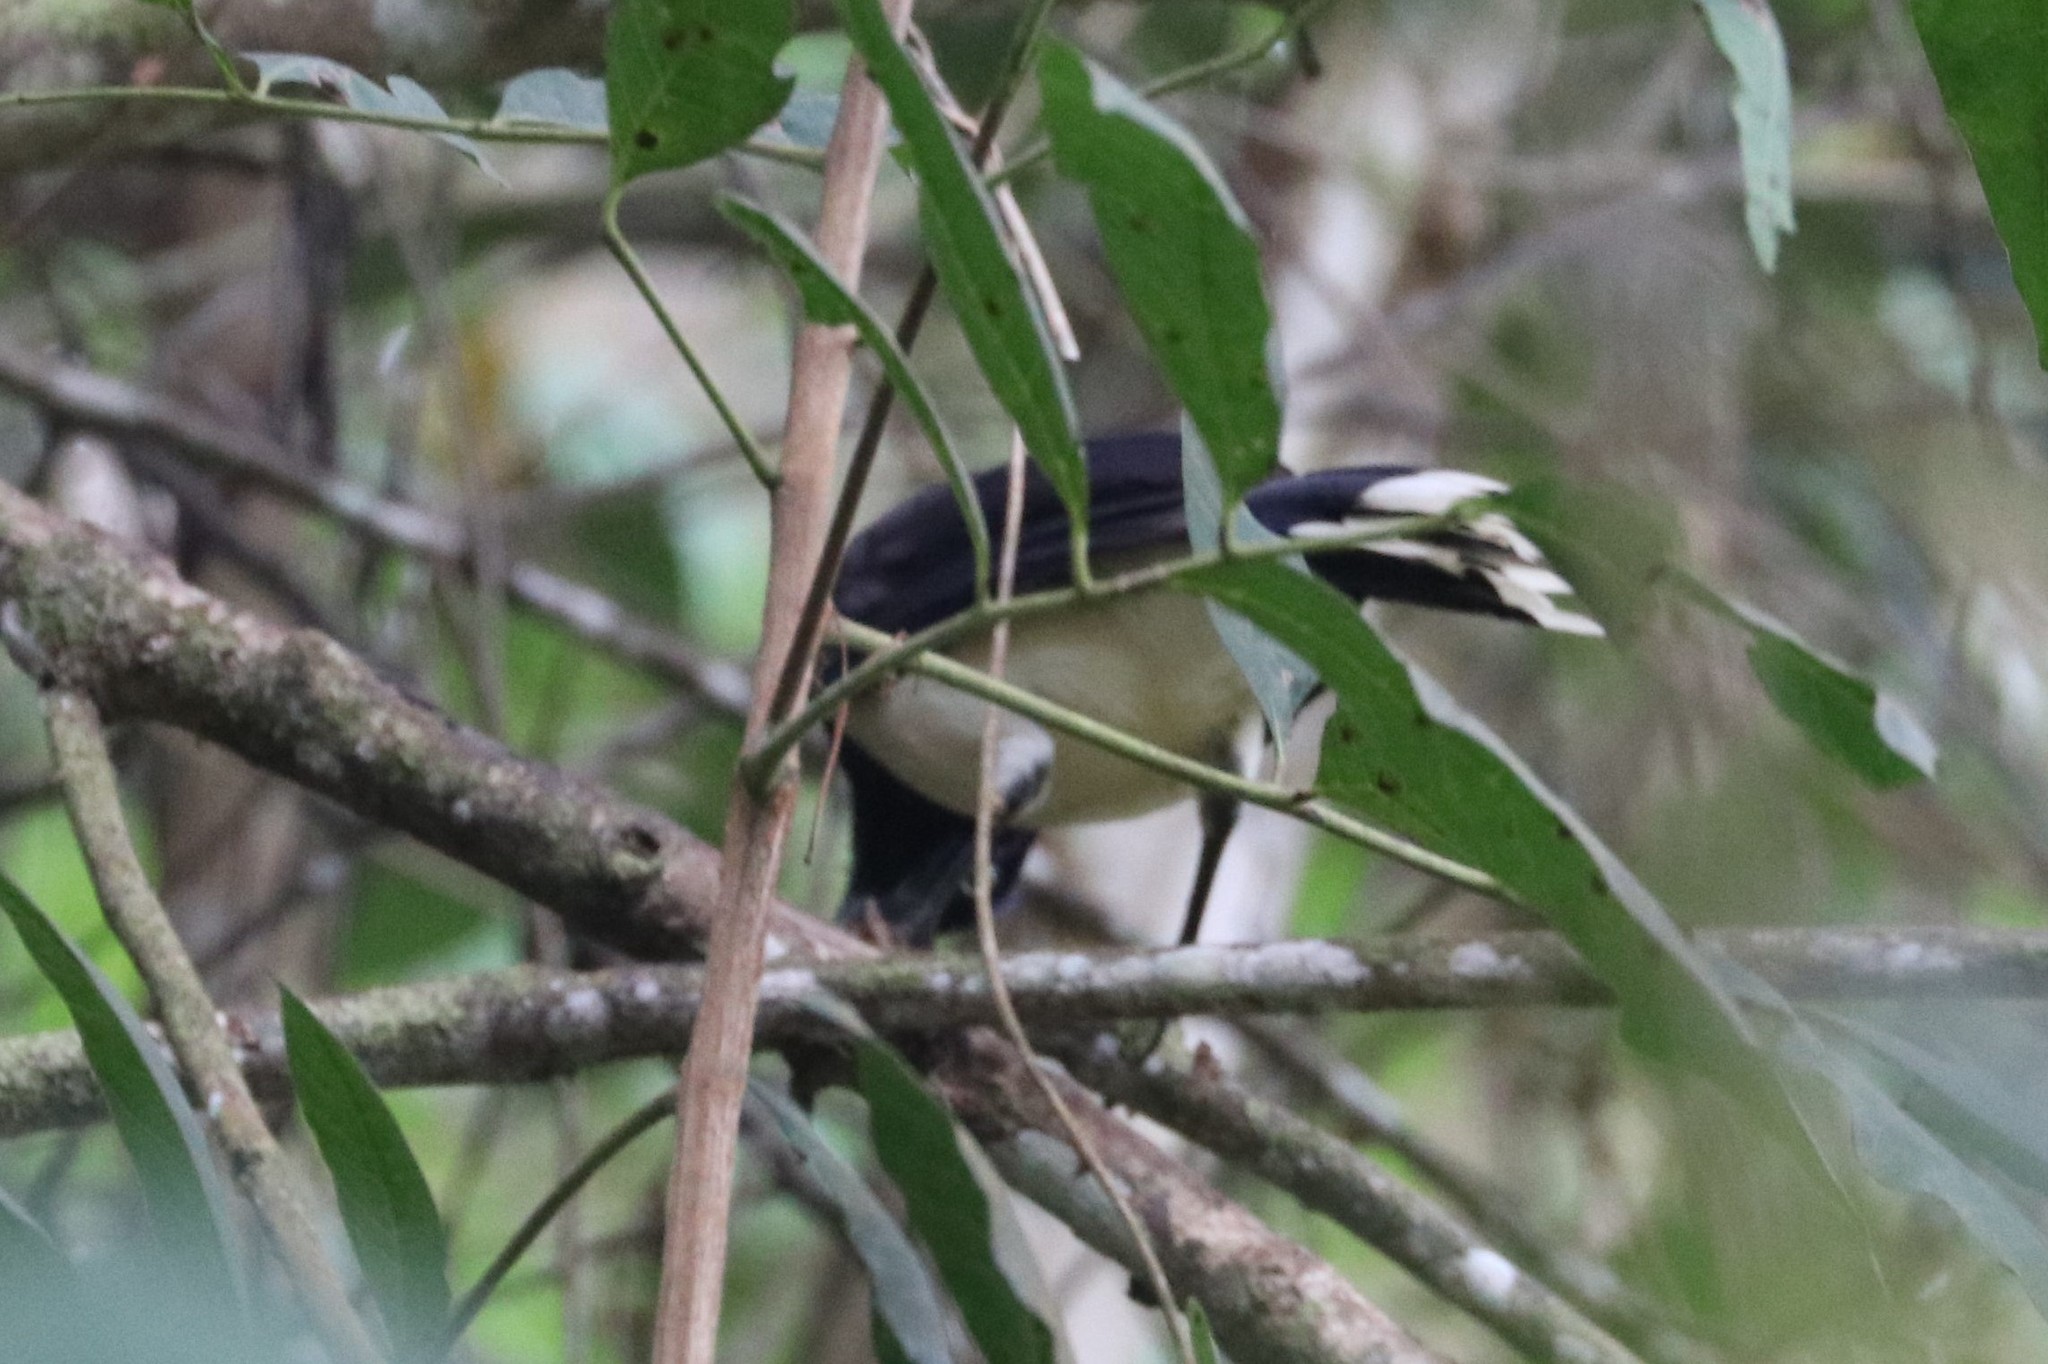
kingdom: Animalia
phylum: Chordata
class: Aves
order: Passeriformes
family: Corvidae
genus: Cyanocorax
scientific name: Cyanocorax affinis
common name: Black-chested jay
